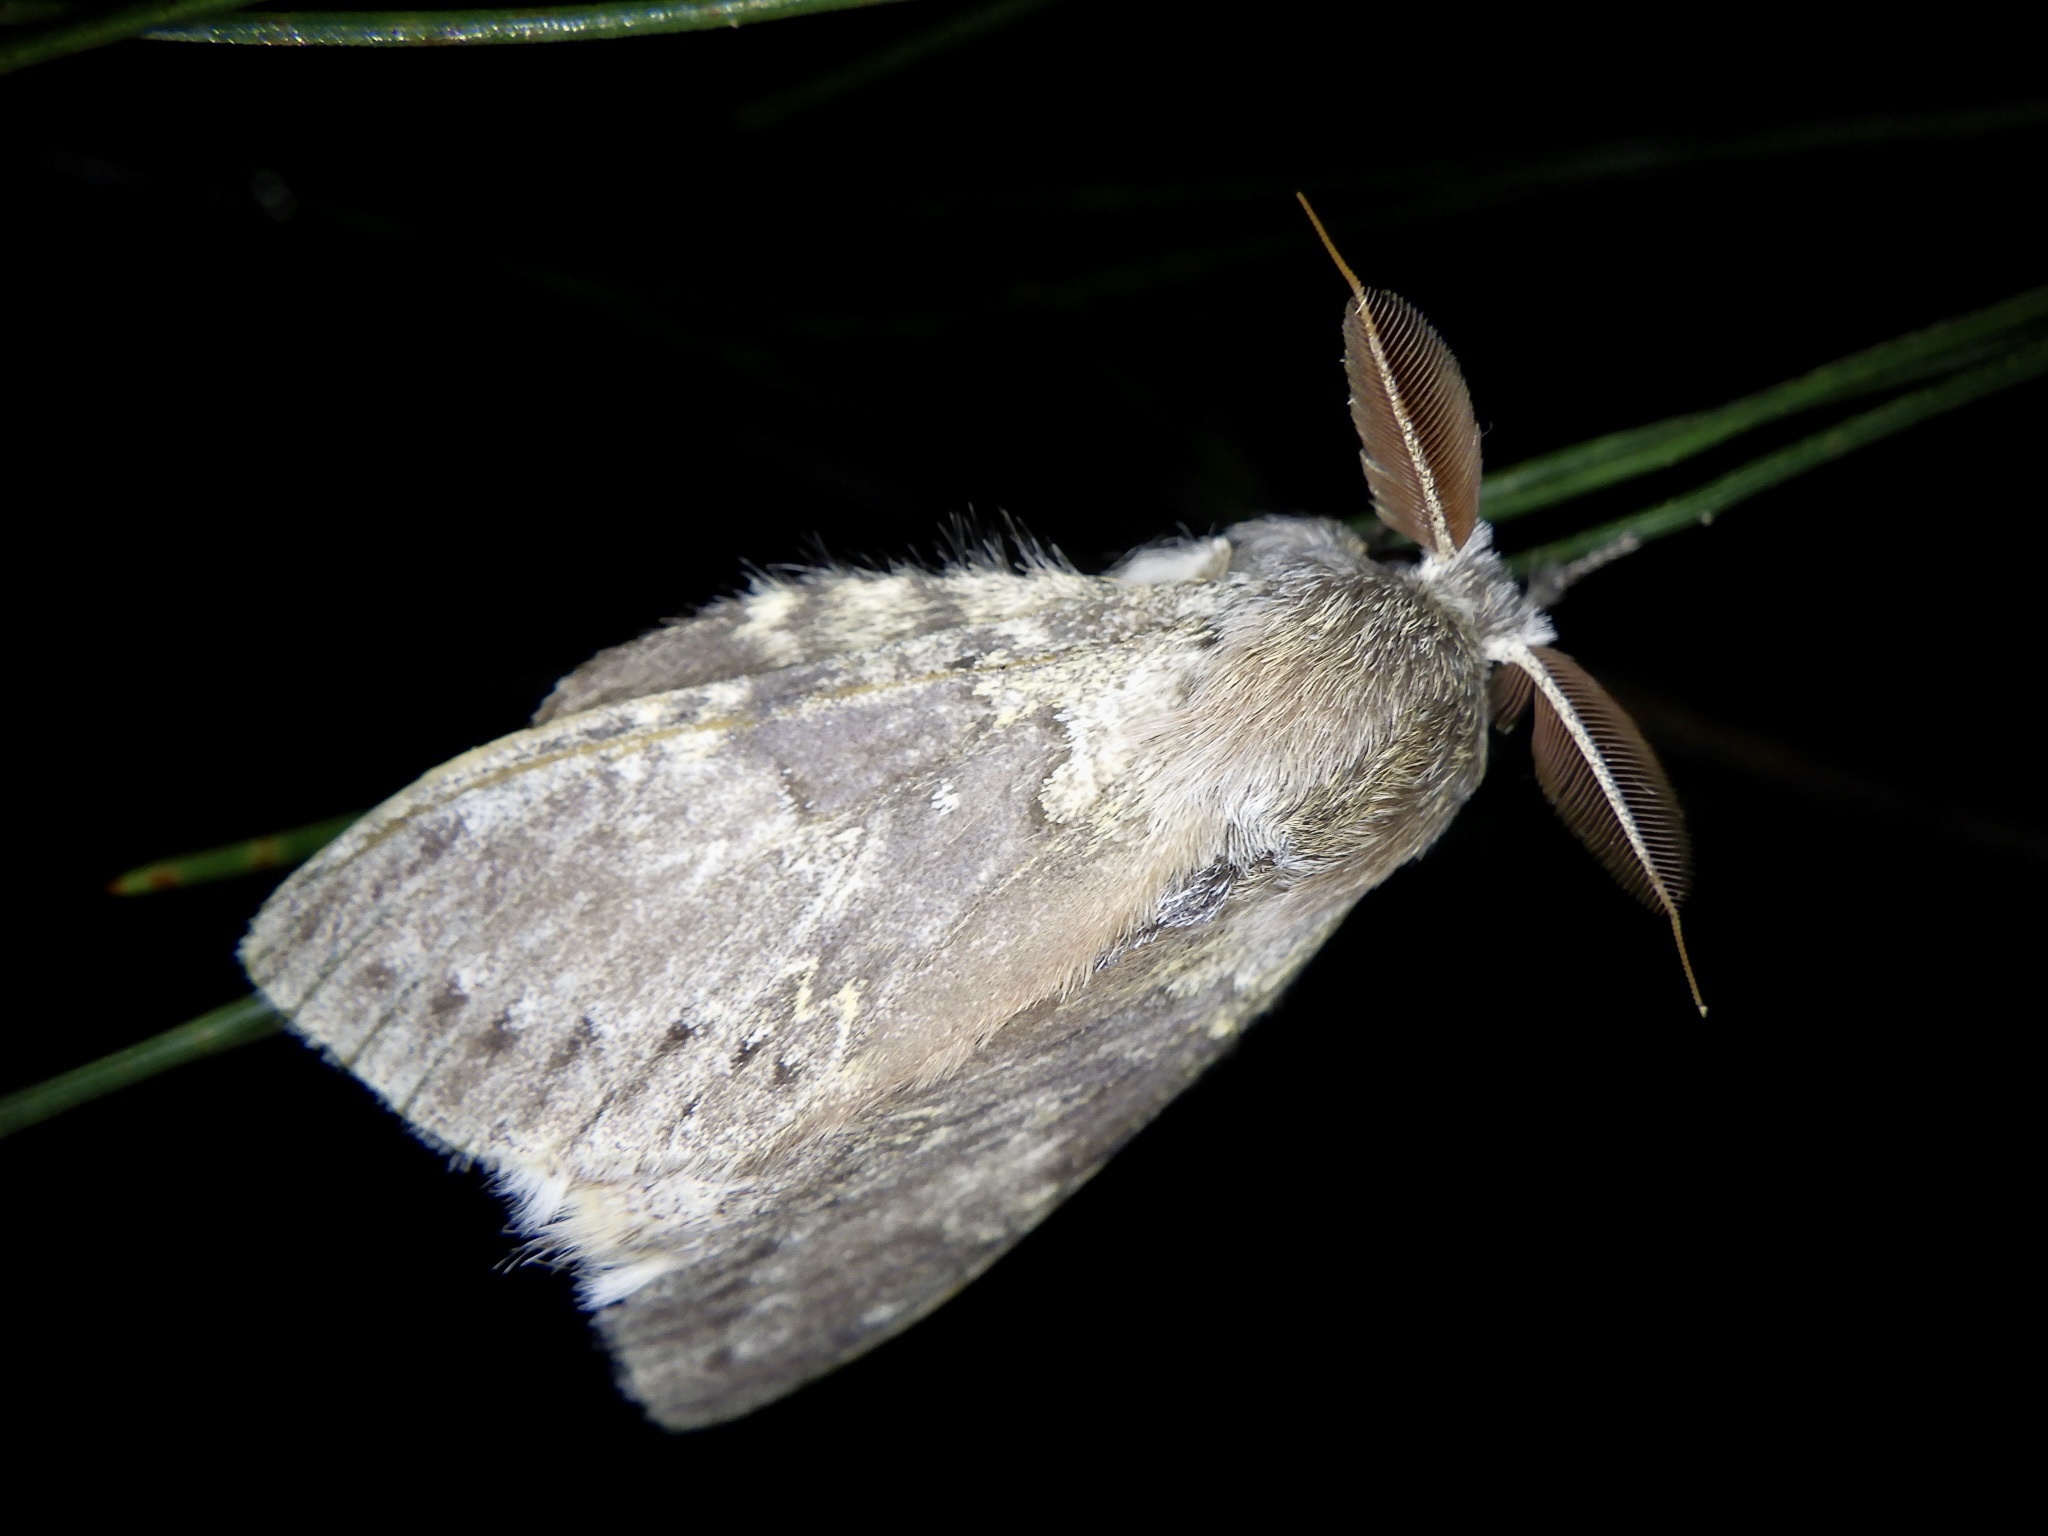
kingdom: Animalia
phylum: Arthropoda
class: Insecta
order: Lepidoptera
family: Notodontidae
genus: Stauropus
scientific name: Stauropus fagi
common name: Lobster moth
